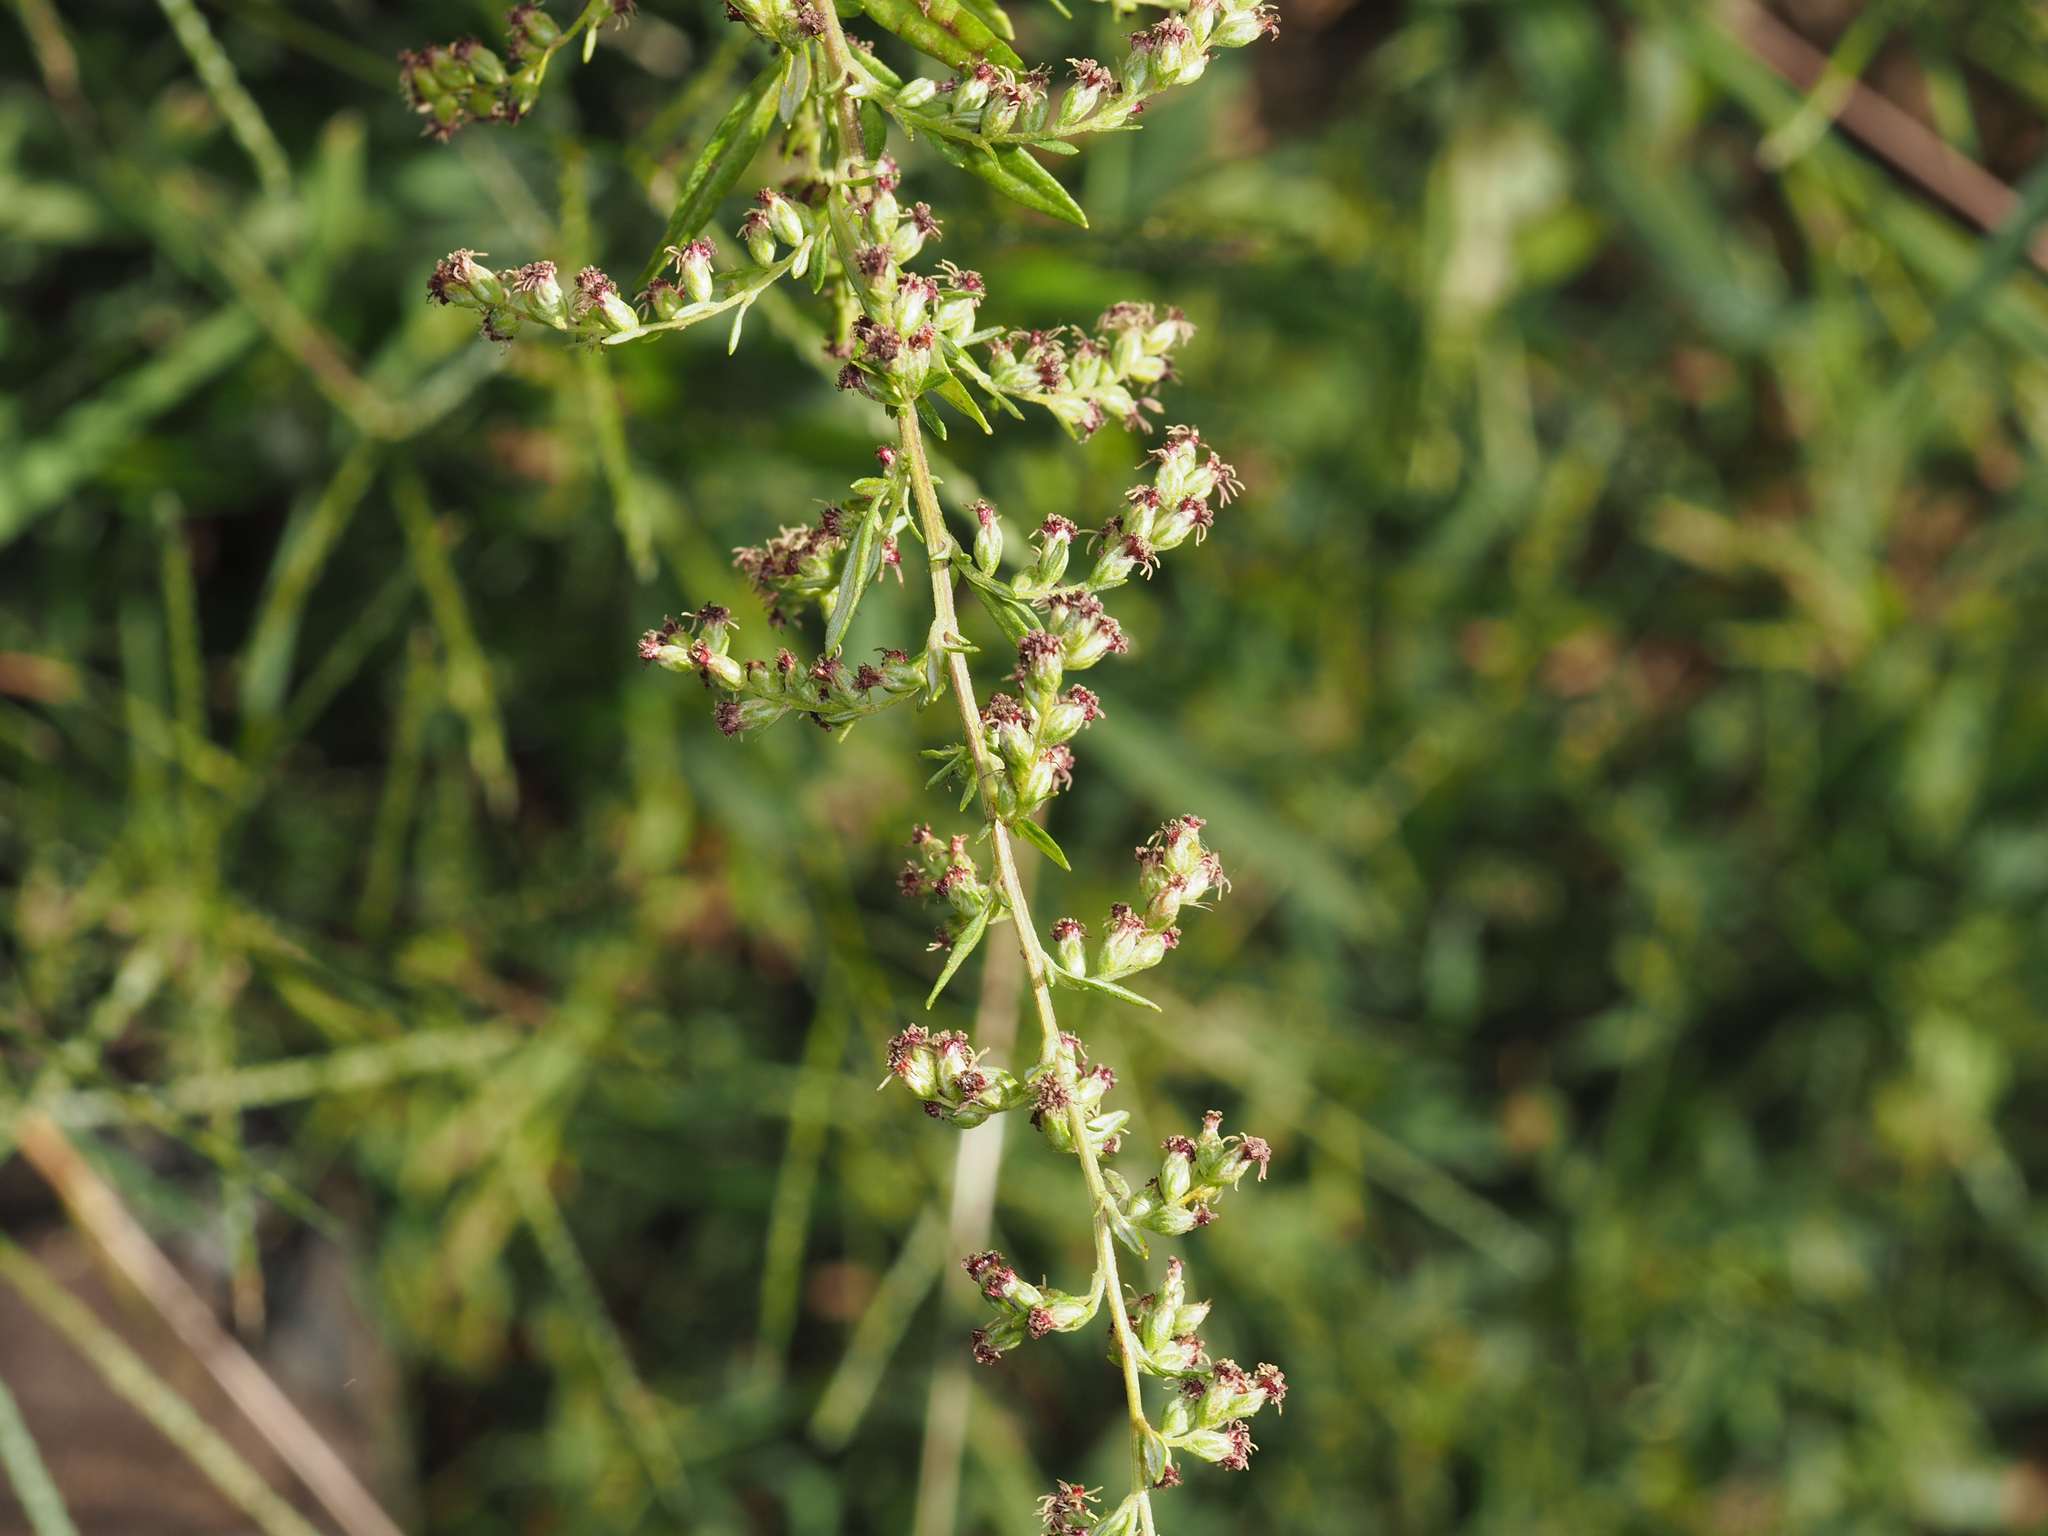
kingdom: Plantae
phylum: Tracheophyta
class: Magnoliopsida
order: Asterales
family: Asteraceae
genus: Artemisia
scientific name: Artemisia vulgaris
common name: Mugwort
